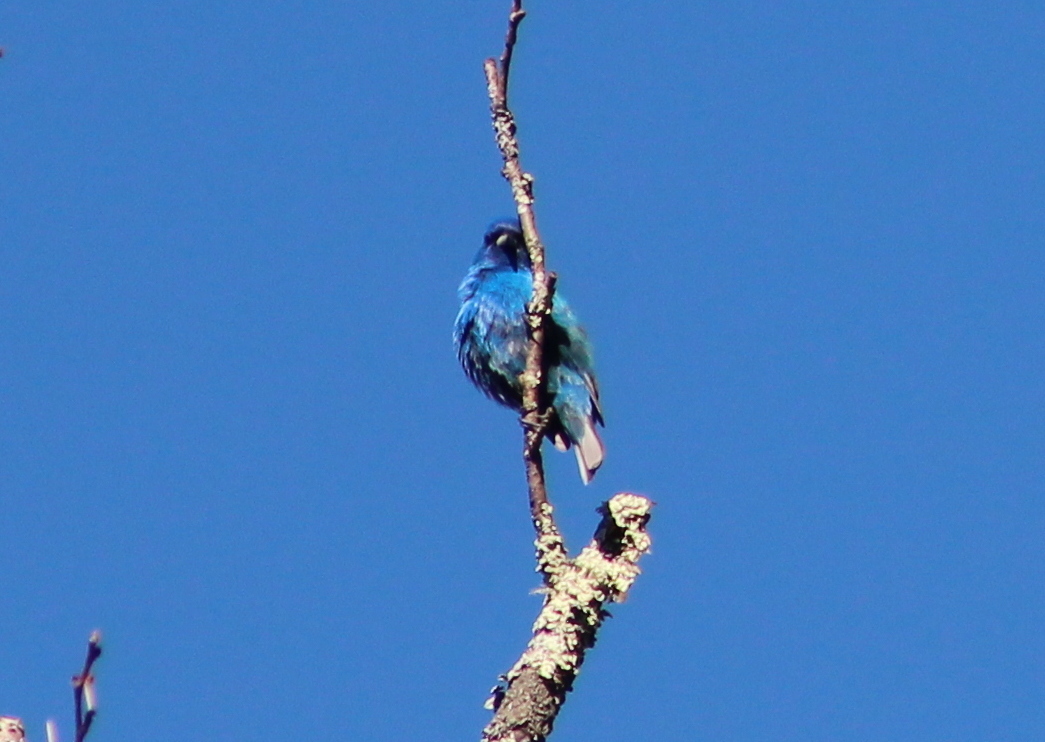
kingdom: Animalia
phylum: Chordata
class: Aves
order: Passeriformes
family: Cardinalidae
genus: Passerina
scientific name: Passerina cyanea
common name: Indigo bunting
